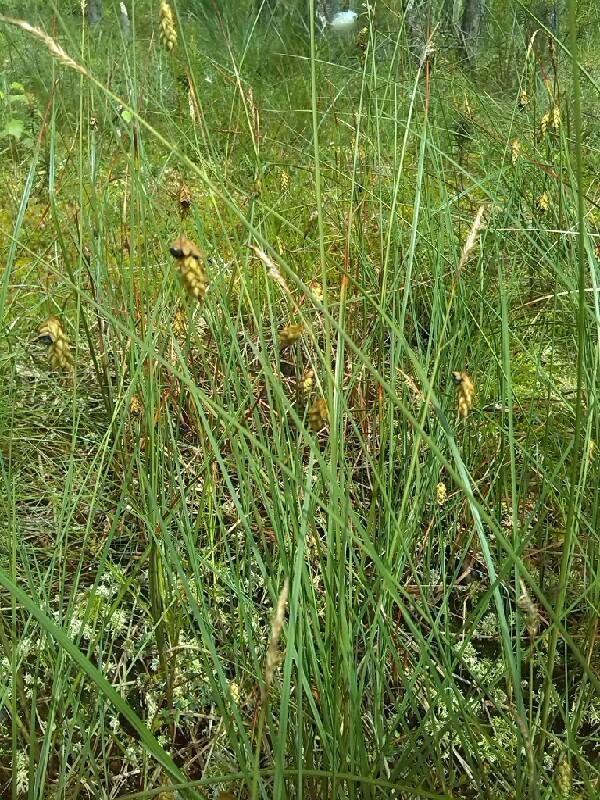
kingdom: Plantae
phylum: Tracheophyta
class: Liliopsida
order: Poales
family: Cyperaceae
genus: Carex
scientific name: Carex limosa
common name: Bog sedge
